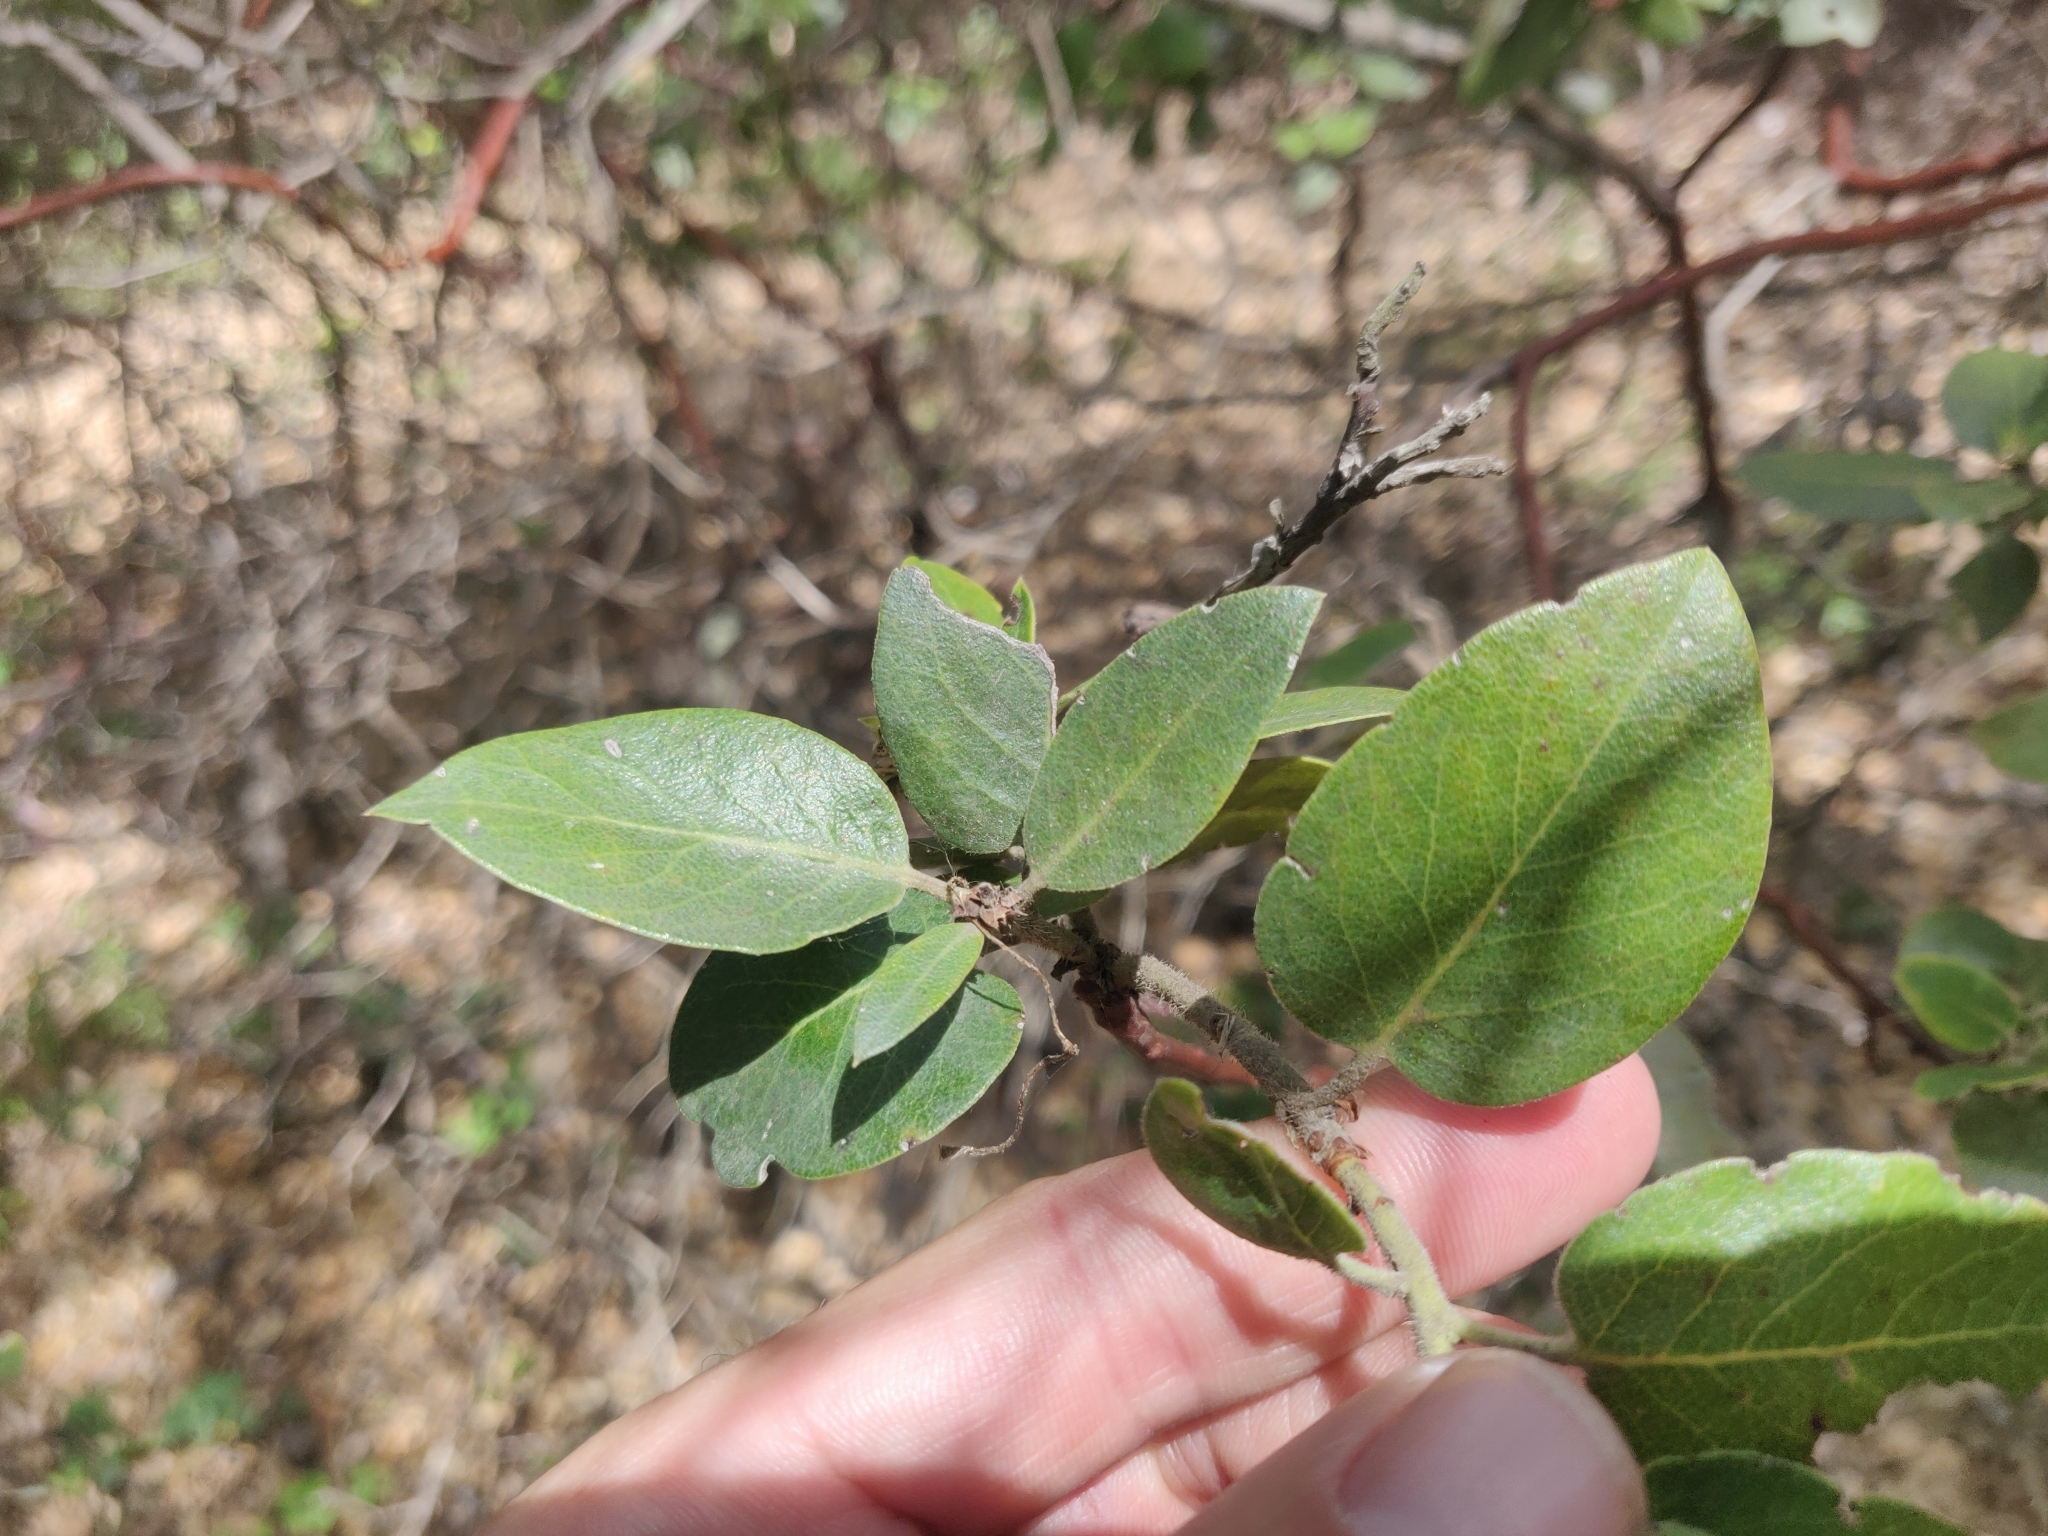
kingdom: Plantae
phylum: Tracheophyta
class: Magnoliopsida
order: Ericales
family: Ericaceae
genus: Arctostaphylos
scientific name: Arctostaphylos crustacea
